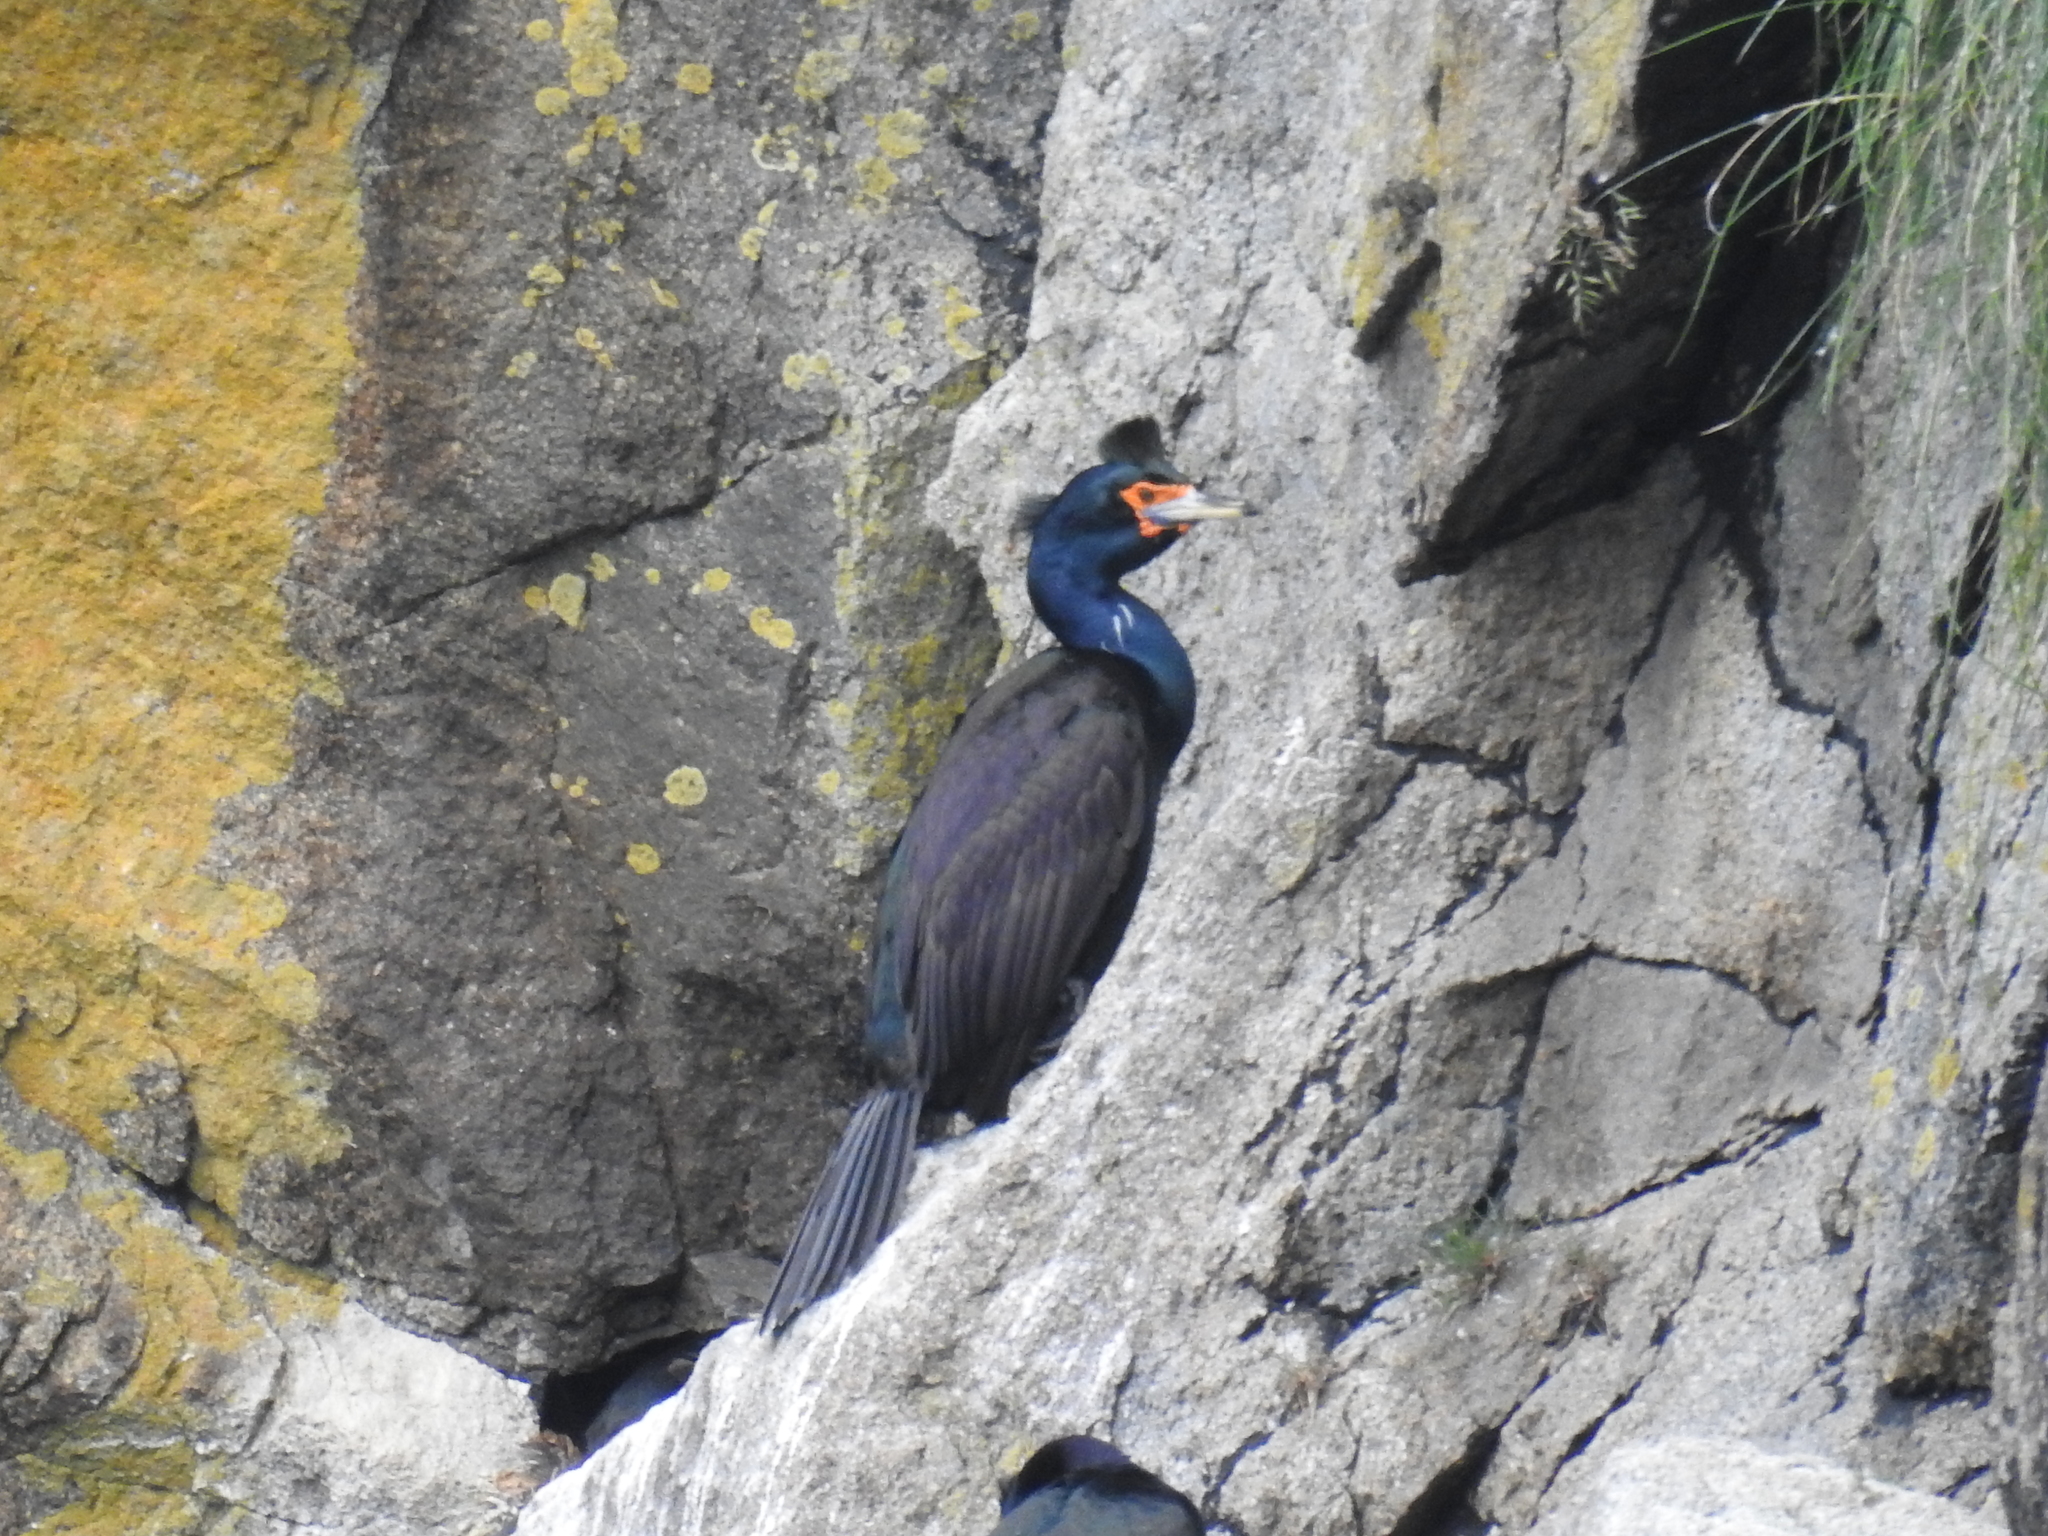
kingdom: Animalia
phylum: Chordata
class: Aves
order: Suliformes
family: Phalacrocoracidae
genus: Phalacrocorax
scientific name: Phalacrocorax urile
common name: Red-faced cormorant
